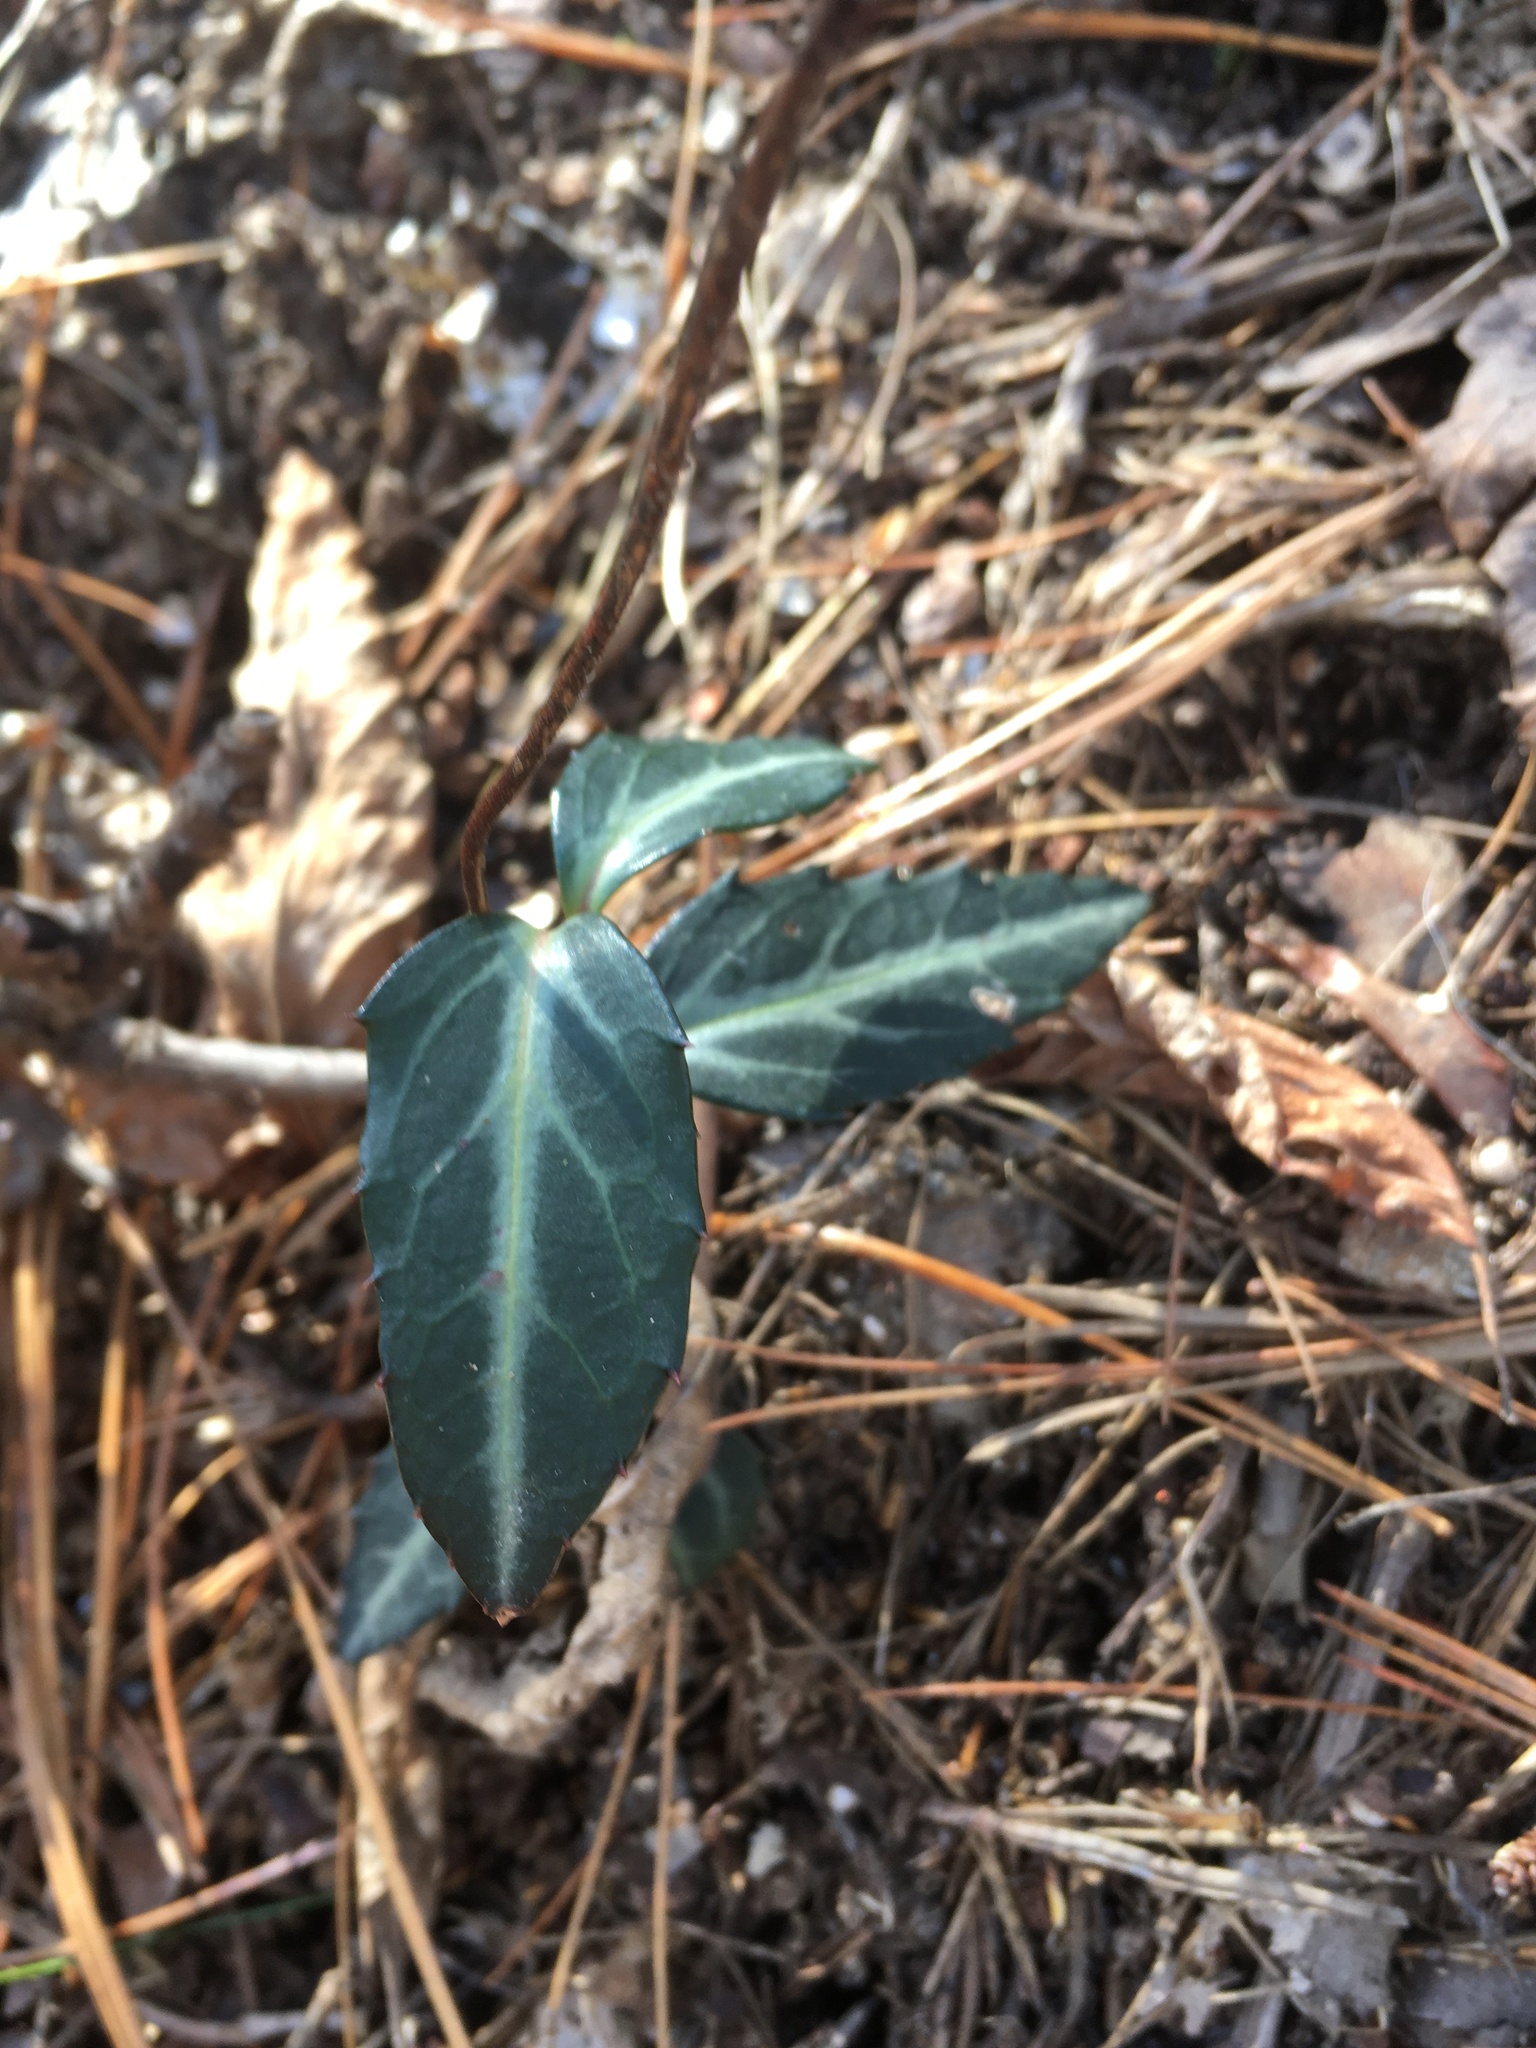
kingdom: Plantae
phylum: Tracheophyta
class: Magnoliopsida
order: Ericales
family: Ericaceae
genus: Chimaphila
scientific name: Chimaphila maculata
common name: Spotted pipsissewa
